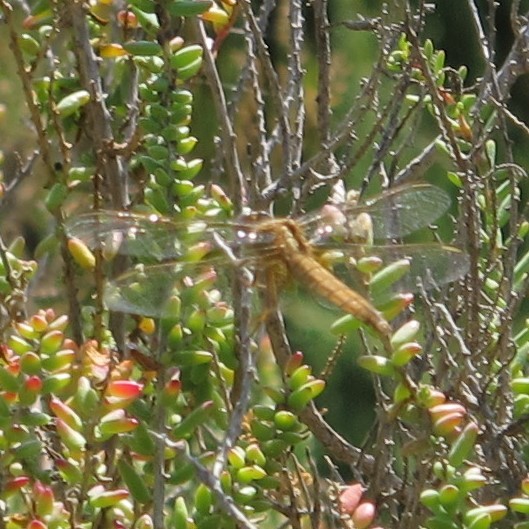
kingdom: Animalia
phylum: Arthropoda
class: Insecta
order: Odonata
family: Libellulidae
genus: Crocothemis
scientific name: Crocothemis erythraea
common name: Scarlet dragonfly
